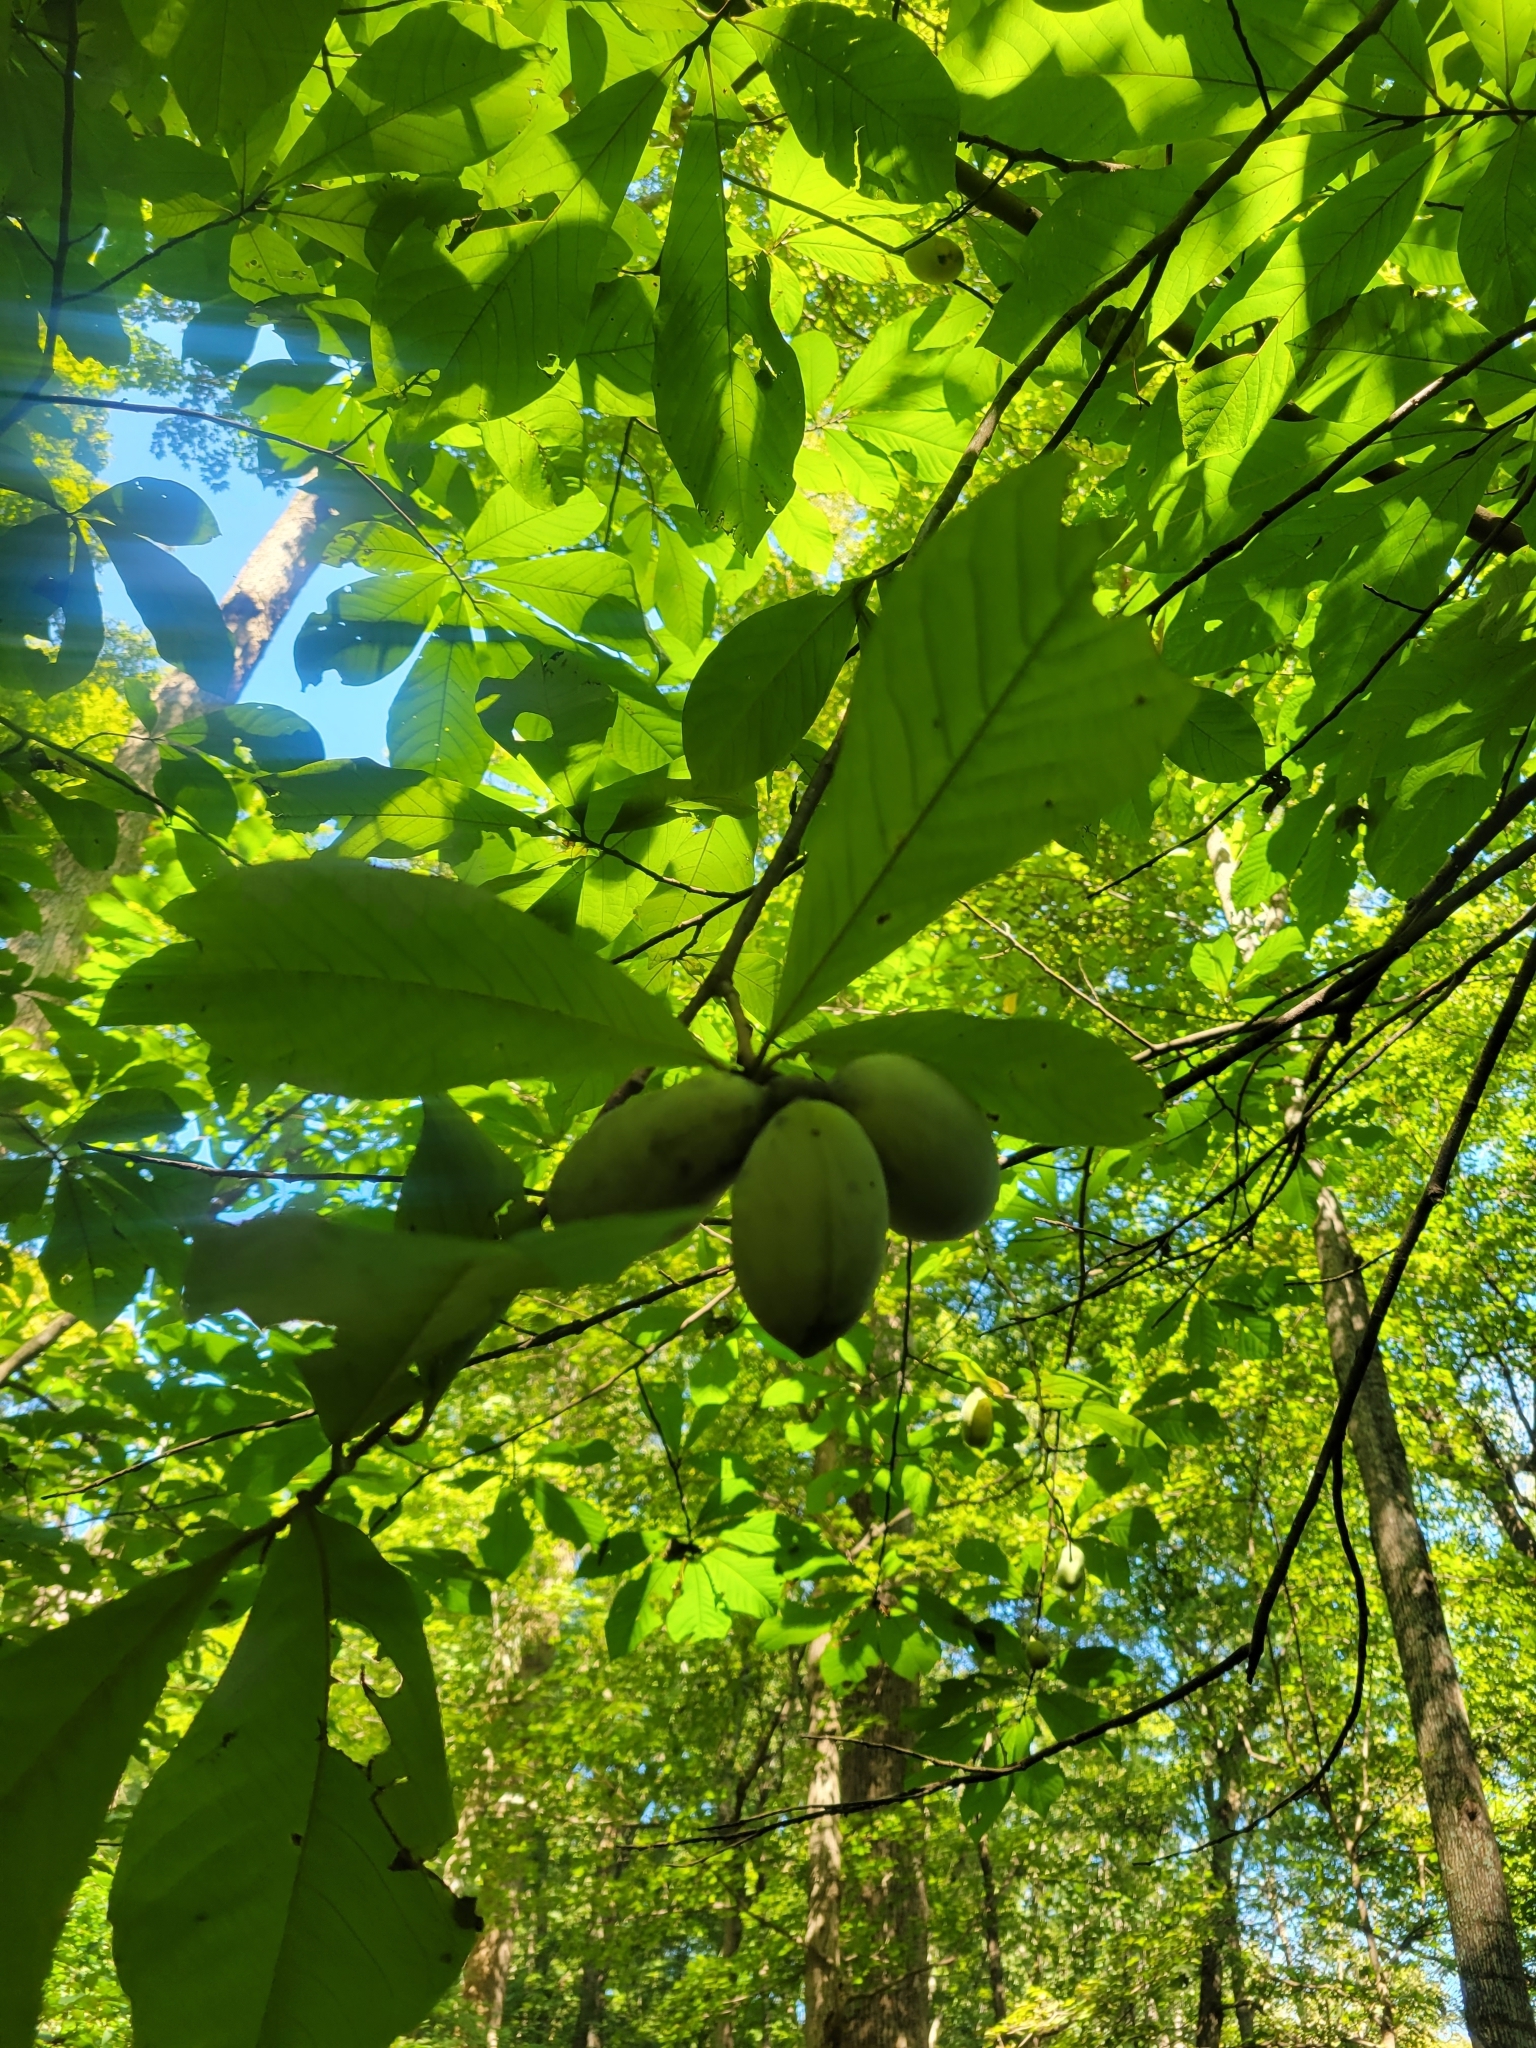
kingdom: Plantae
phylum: Tracheophyta
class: Magnoliopsida
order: Magnoliales
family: Annonaceae
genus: Asimina
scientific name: Asimina triloba
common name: Dog-banana
